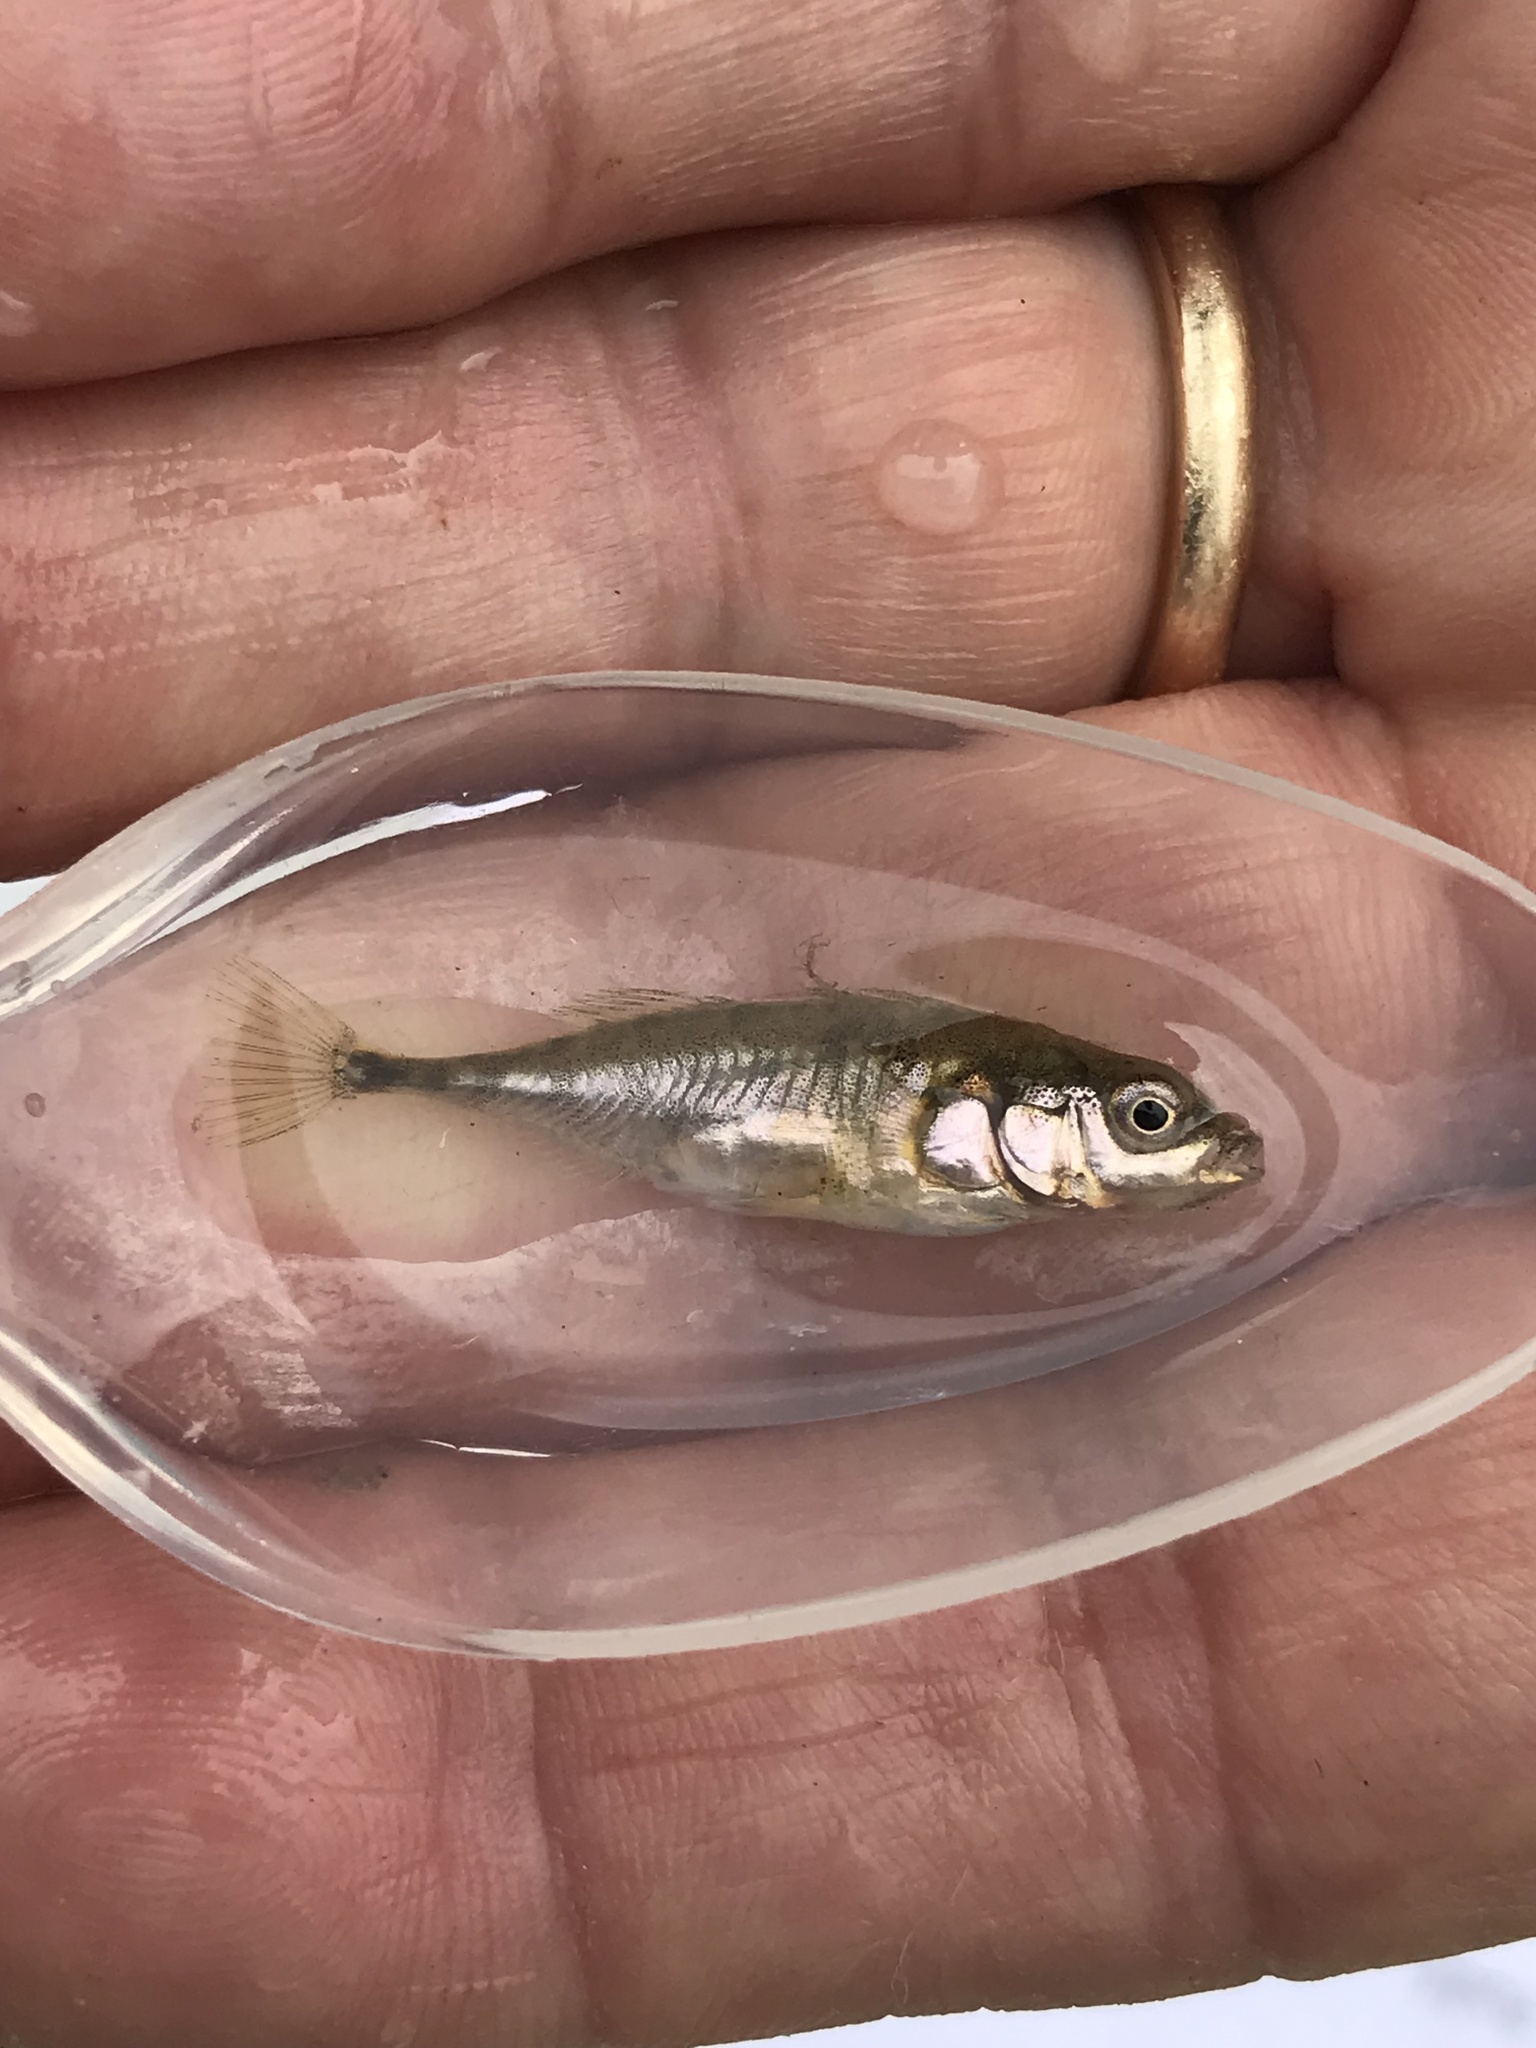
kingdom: Animalia
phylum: Chordata
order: Gasterosteiformes
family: Gasterosteidae
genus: Gasterosteus
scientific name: Gasterosteus aculeatus
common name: Three-spined stickleback
